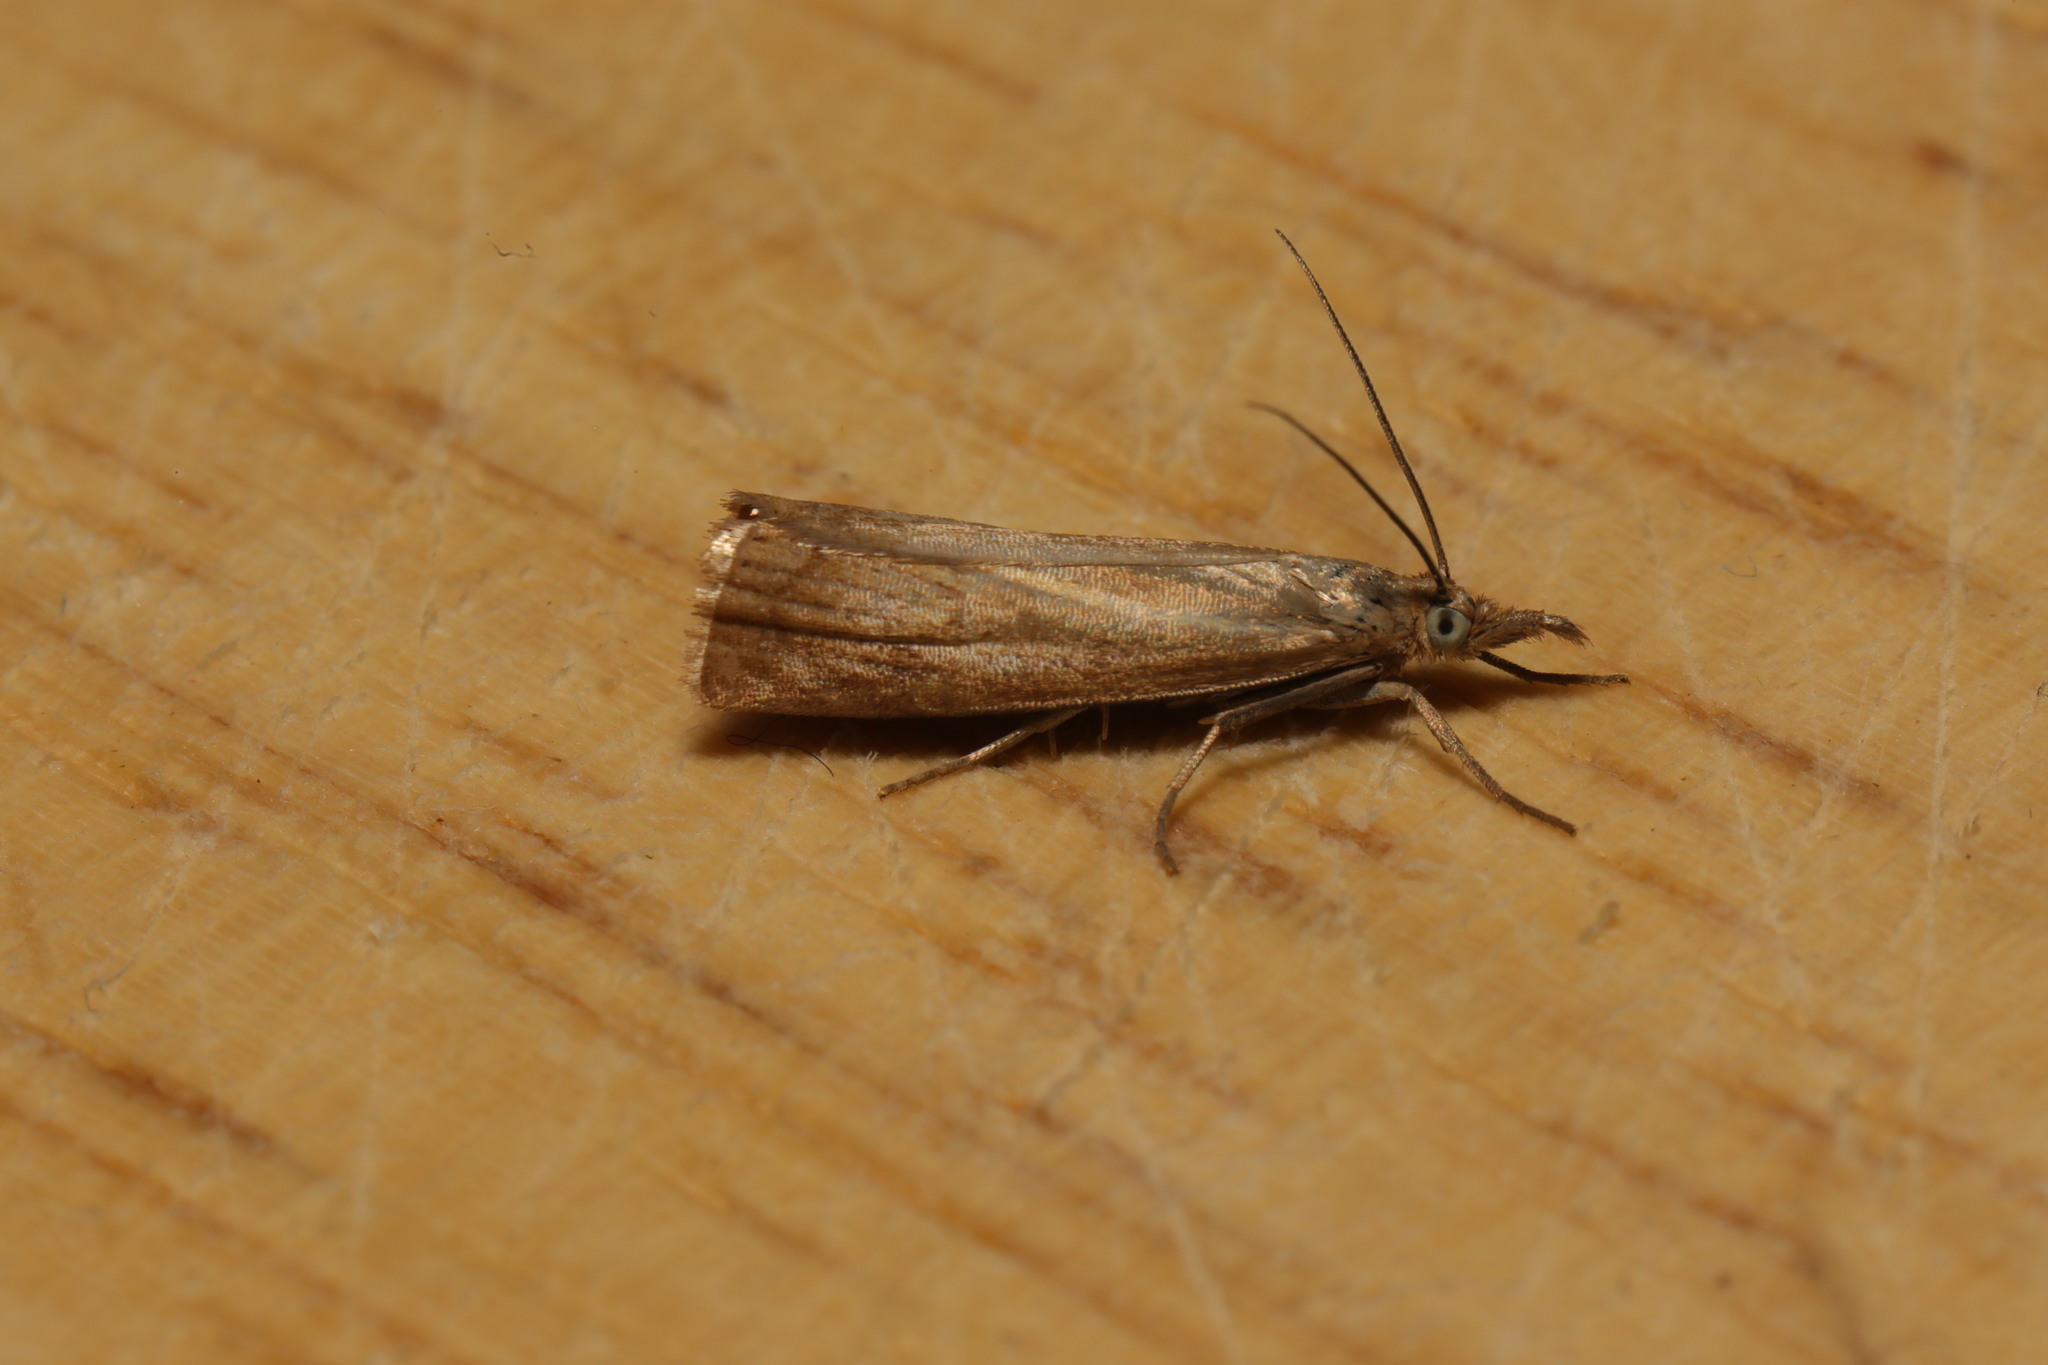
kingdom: Animalia
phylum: Arthropoda
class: Insecta
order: Lepidoptera
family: Crambidae
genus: Chrysoteuchia
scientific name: Chrysoteuchia culmella
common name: Garden grass-veneer
